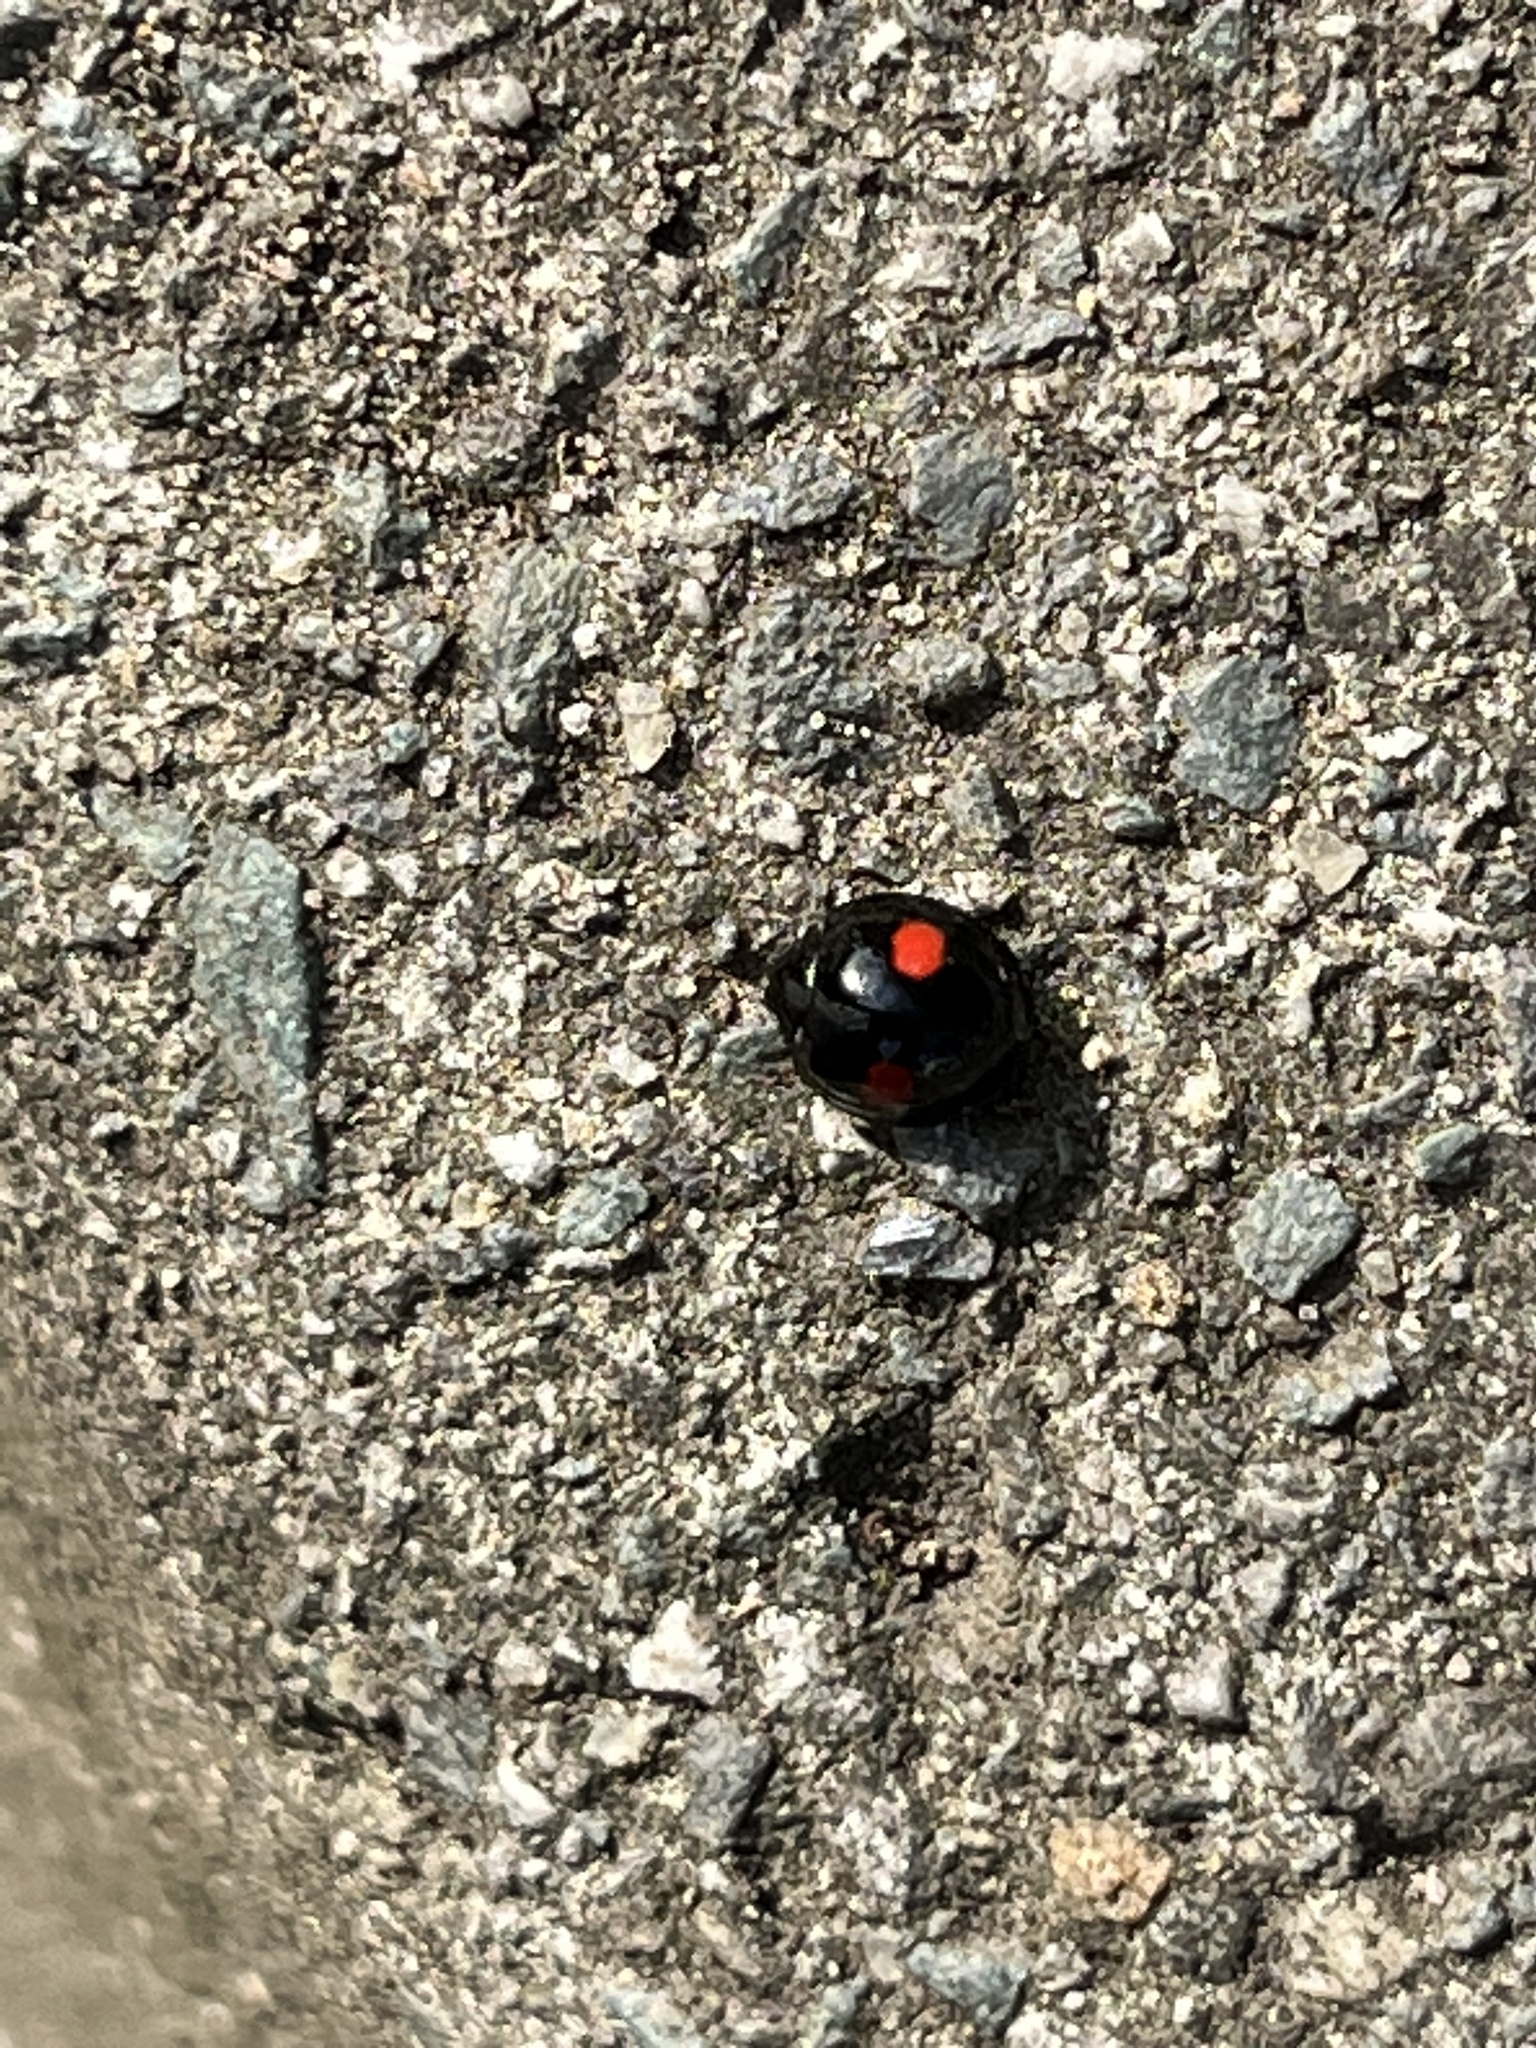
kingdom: Animalia
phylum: Arthropoda
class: Insecta
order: Coleoptera
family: Coccinellidae
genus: Chilocorus
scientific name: Chilocorus renipustulatus
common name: Kidney-spot ladybird
